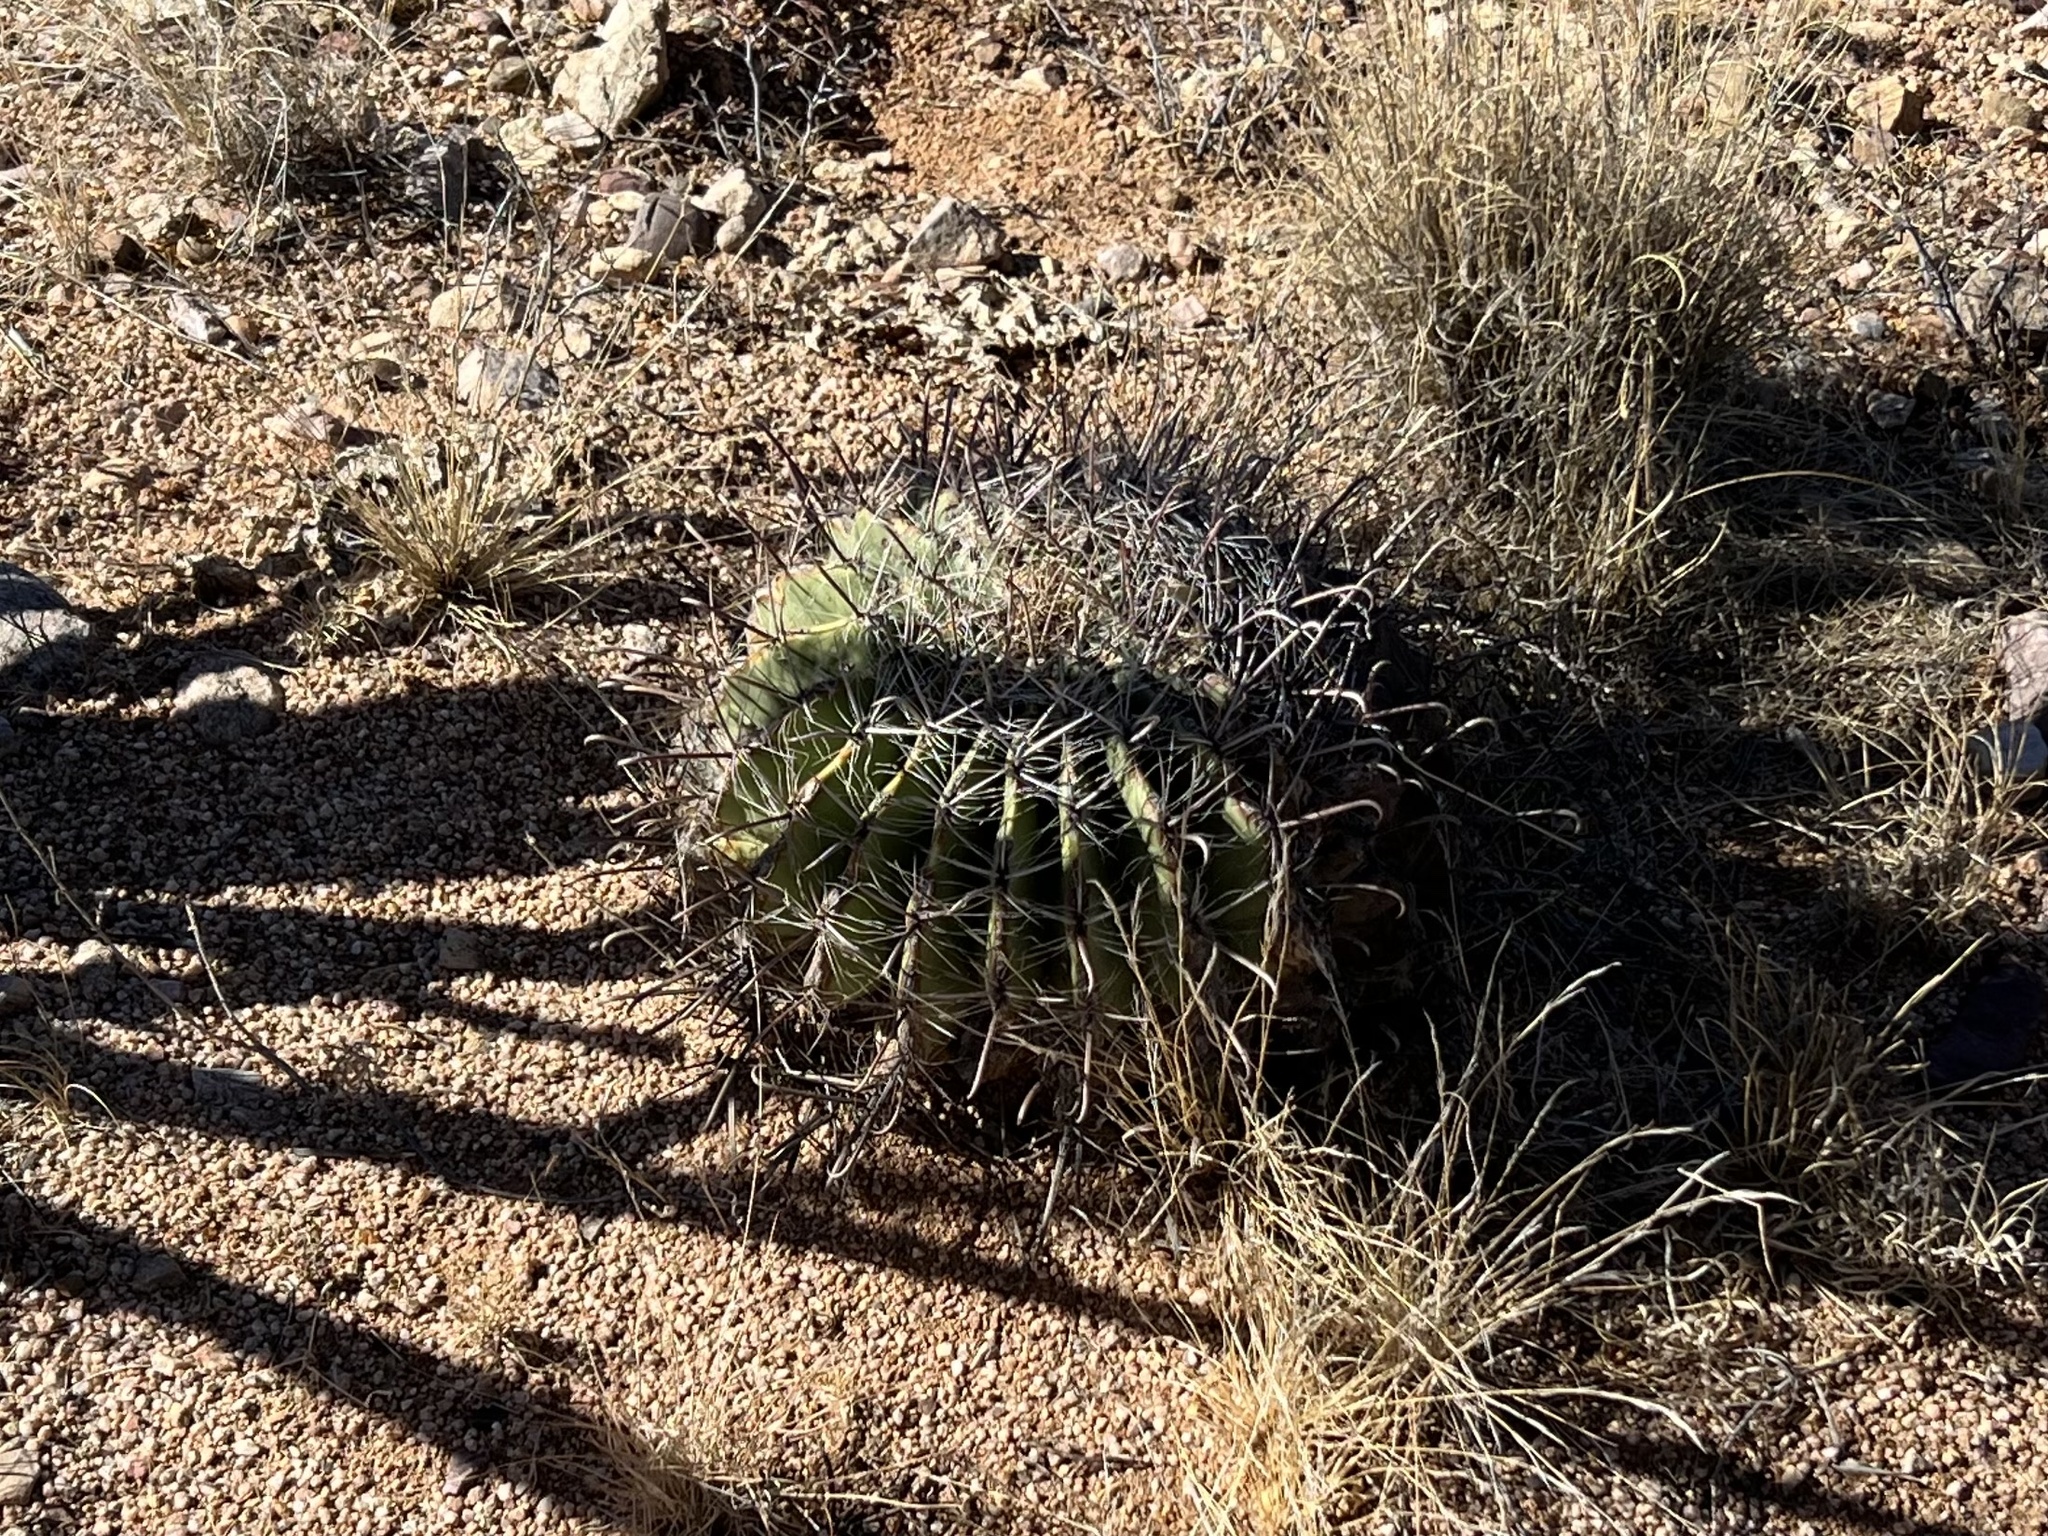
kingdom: Plantae
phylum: Tracheophyta
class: Magnoliopsida
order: Caryophyllales
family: Cactaceae
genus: Ferocactus
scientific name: Ferocactus wislizeni
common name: Candy barrel cactus
